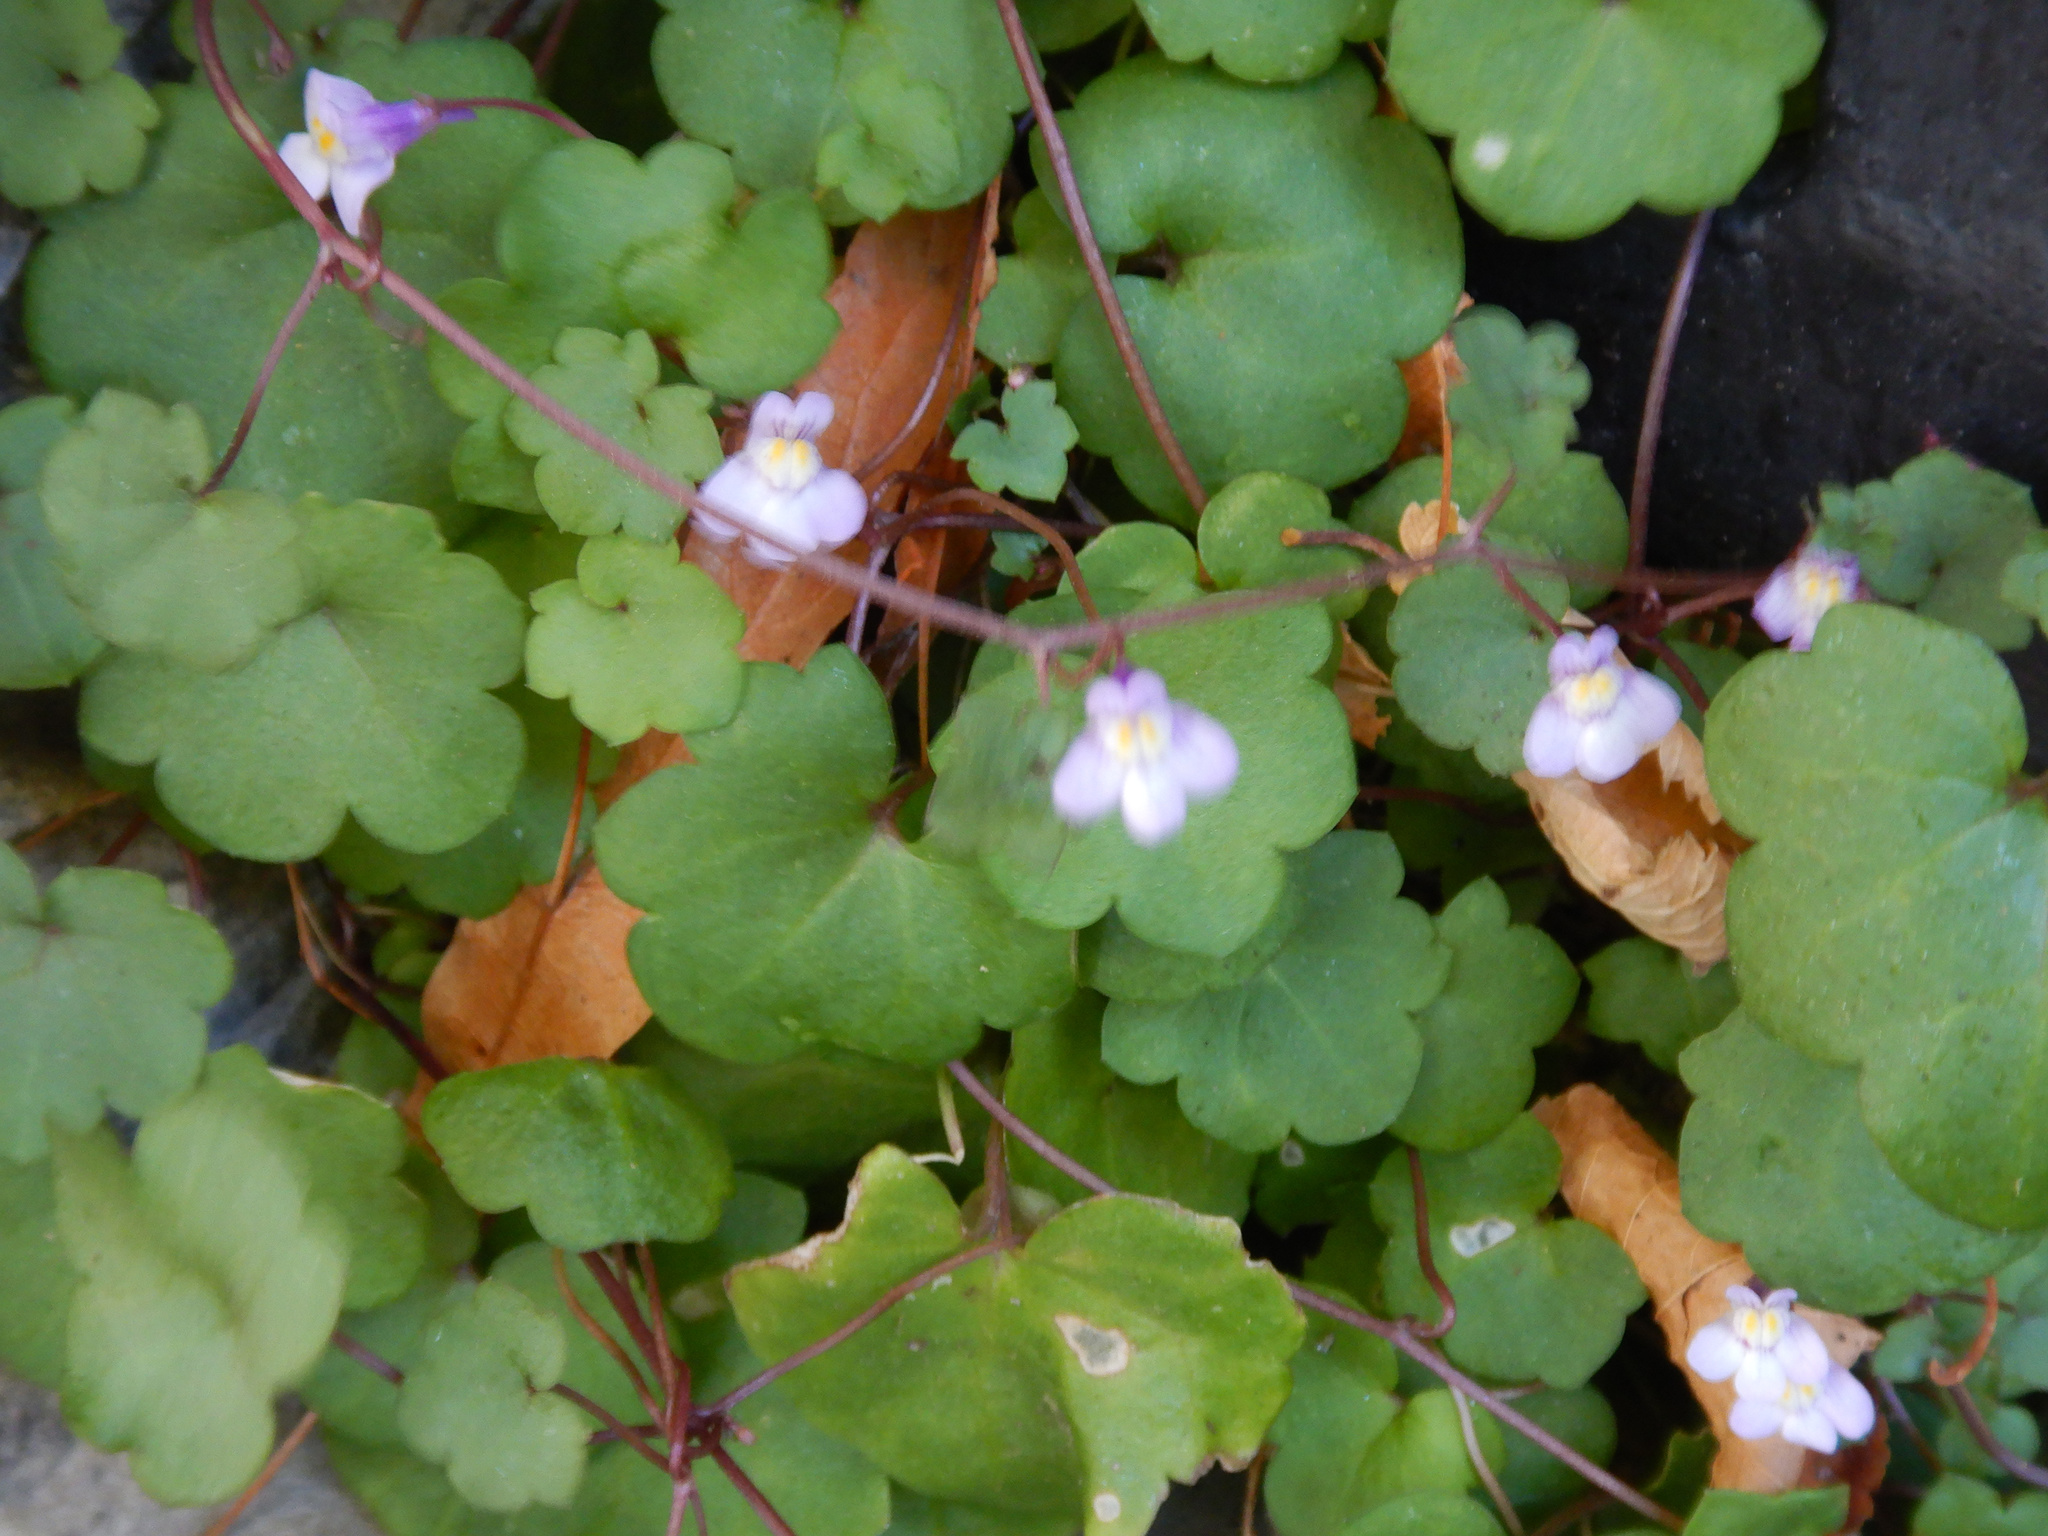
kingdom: Plantae
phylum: Tracheophyta
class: Magnoliopsida
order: Lamiales
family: Plantaginaceae
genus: Cymbalaria
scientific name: Cymbalaria muralis
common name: Ivy-leaved toadflax
